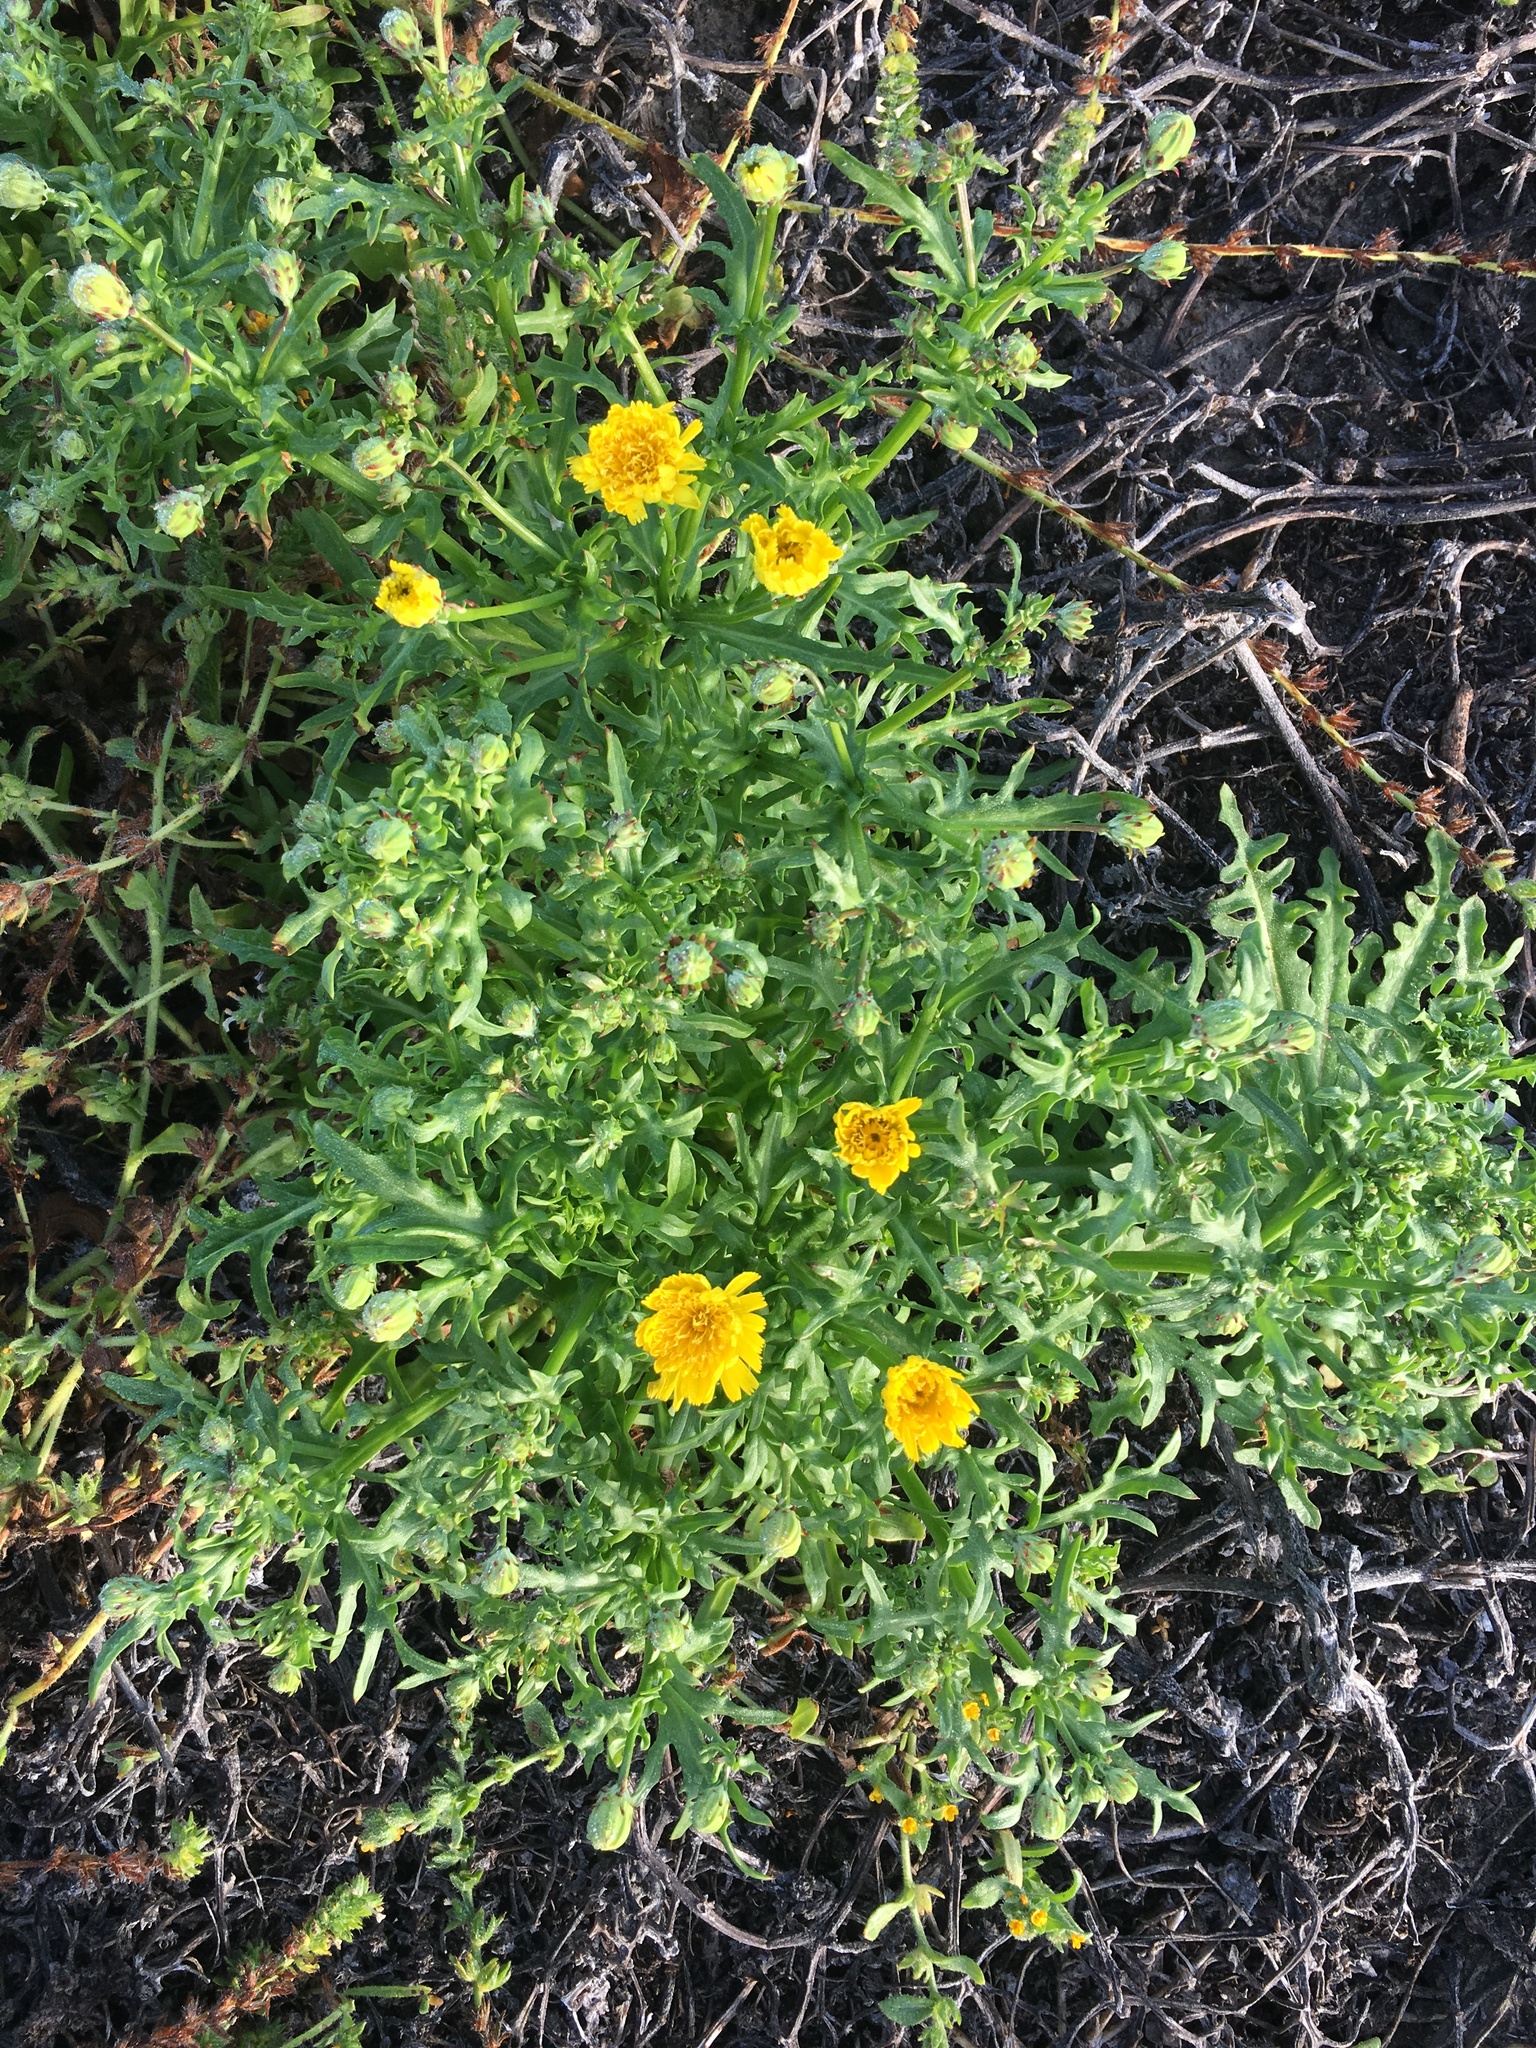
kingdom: Plantae
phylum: Tracheophyta
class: Magnoliopsida
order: Asterales
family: Asteraceae
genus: Malacothrix
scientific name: Malacothrix foliosa
